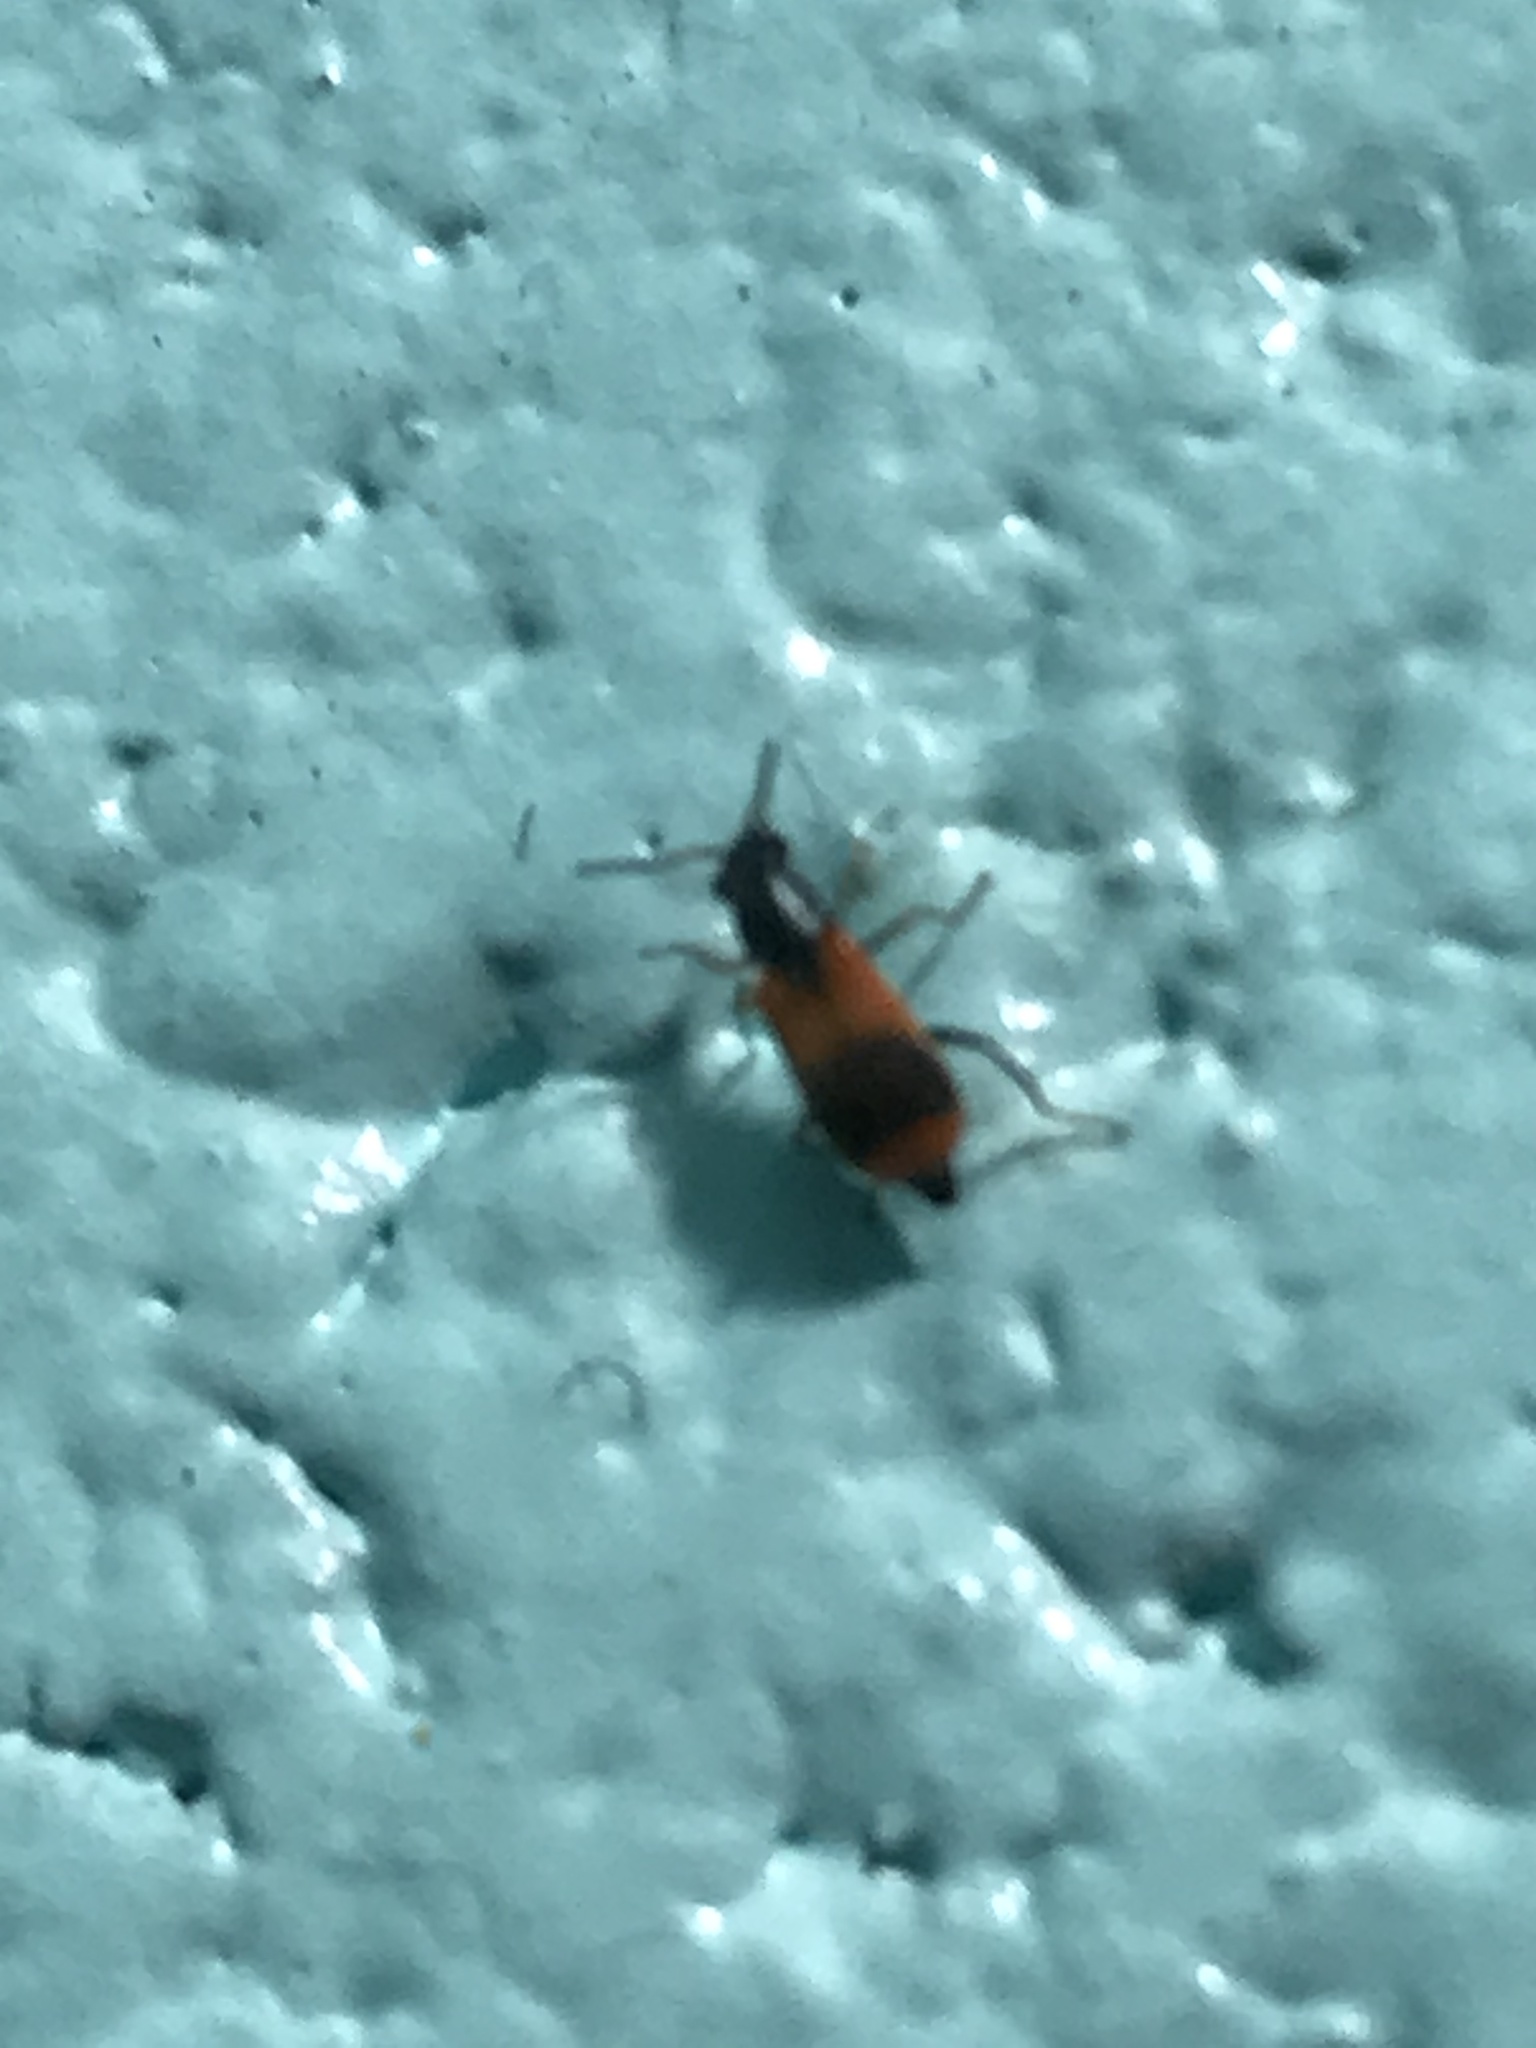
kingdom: Animalia
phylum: Arthropoda
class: Insecta
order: Coleoptera
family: Melyridae
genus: Anthocomus
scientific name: Anthocomus equestris
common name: Black-banded soft-winged flower beetle
